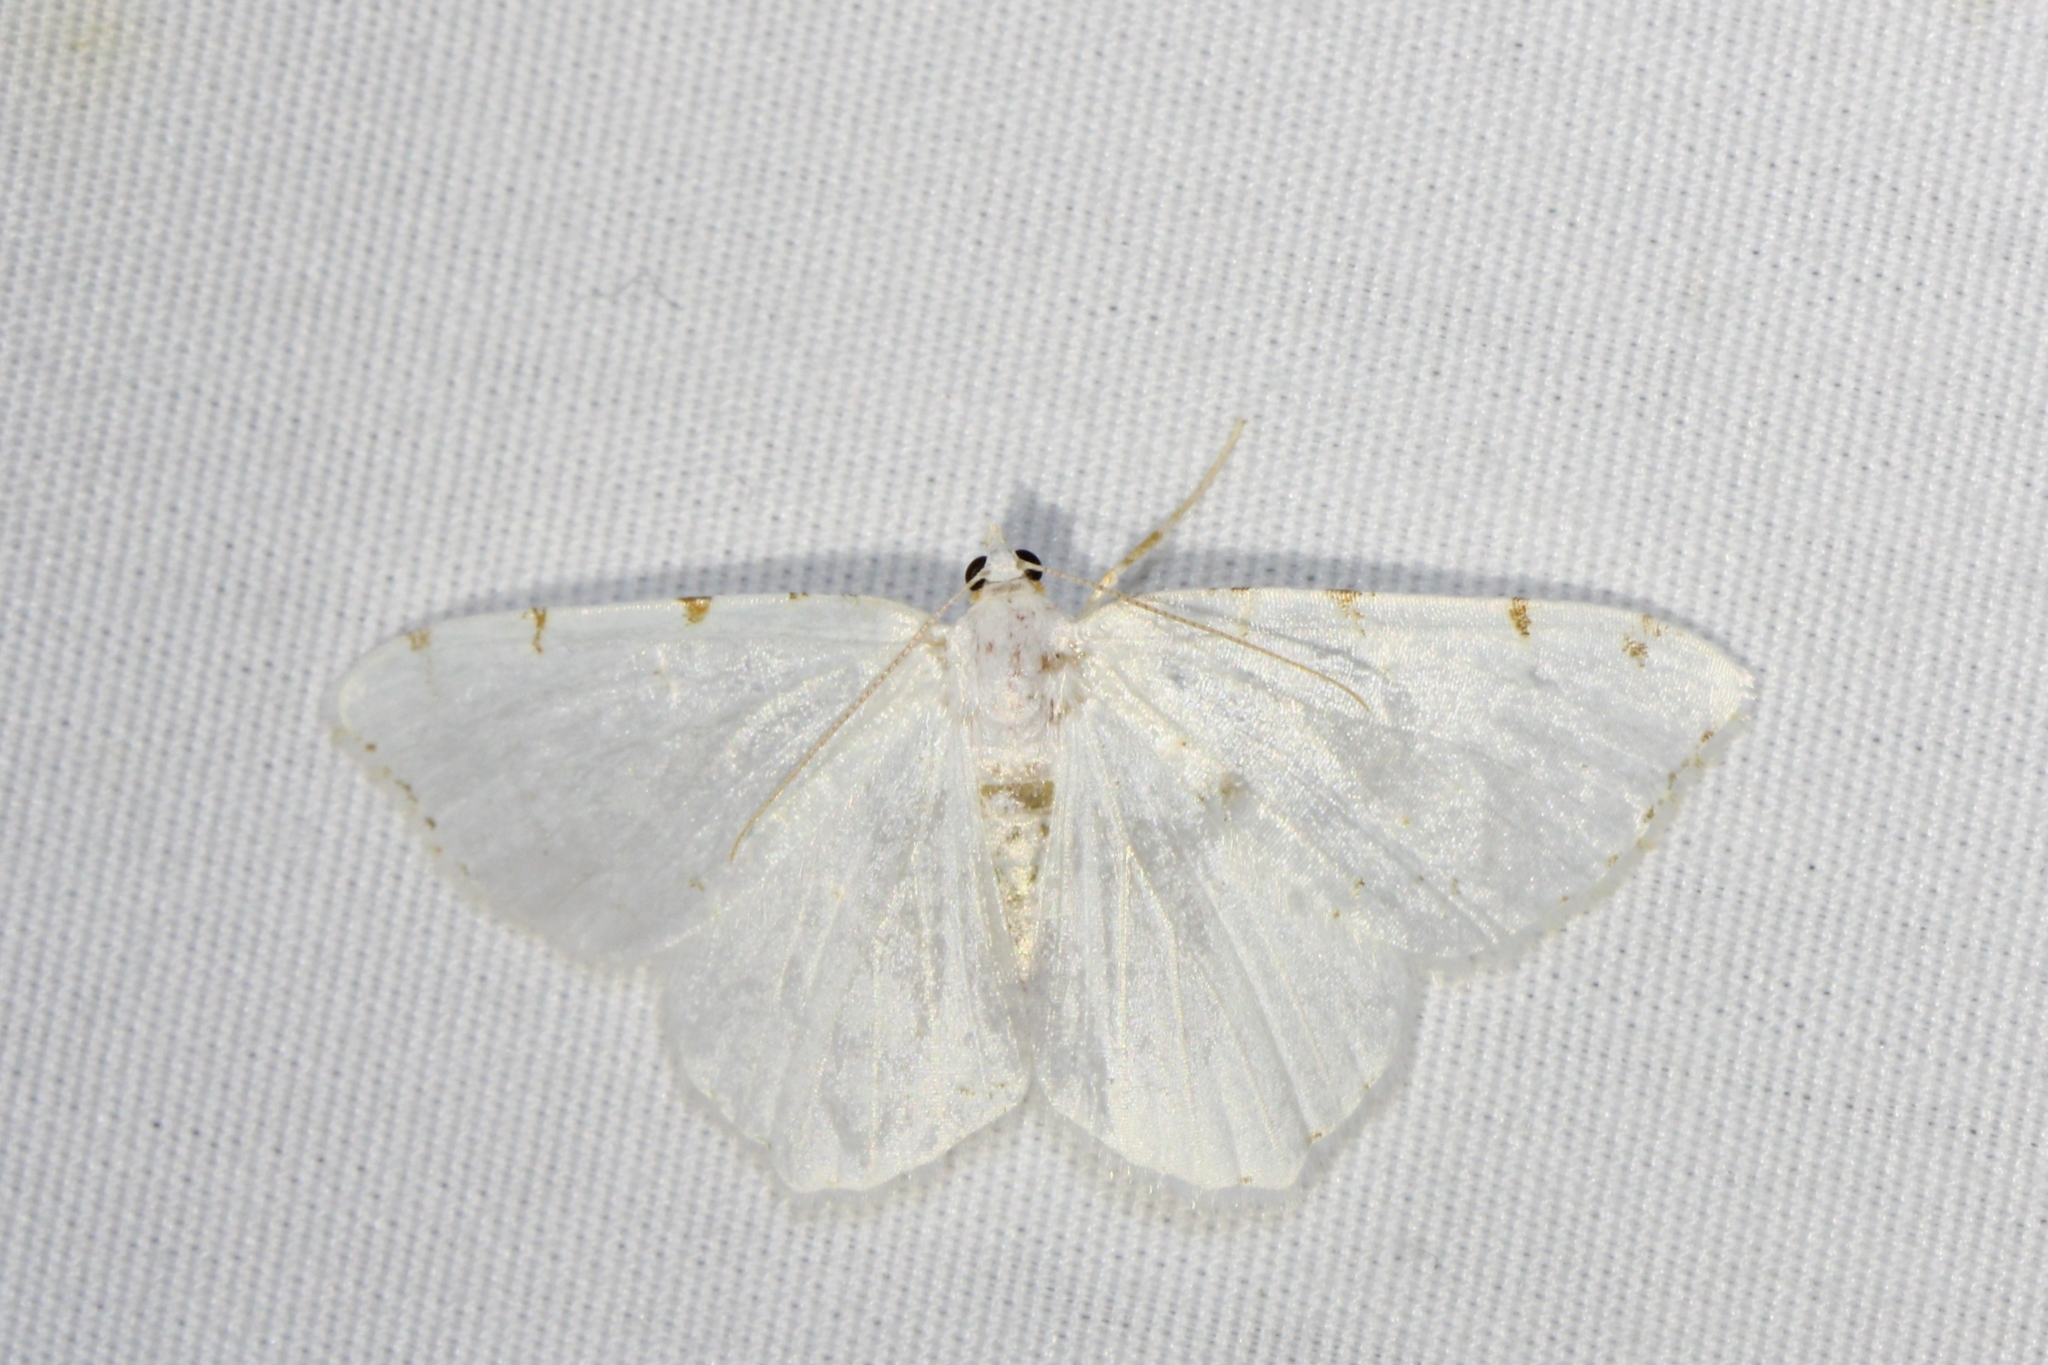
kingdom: Animalia
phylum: Arthropoda
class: Insecta
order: Lepidoptera
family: Geometridae
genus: Macaria
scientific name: Macaria pustularia
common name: Lesser maple spanworm moth
